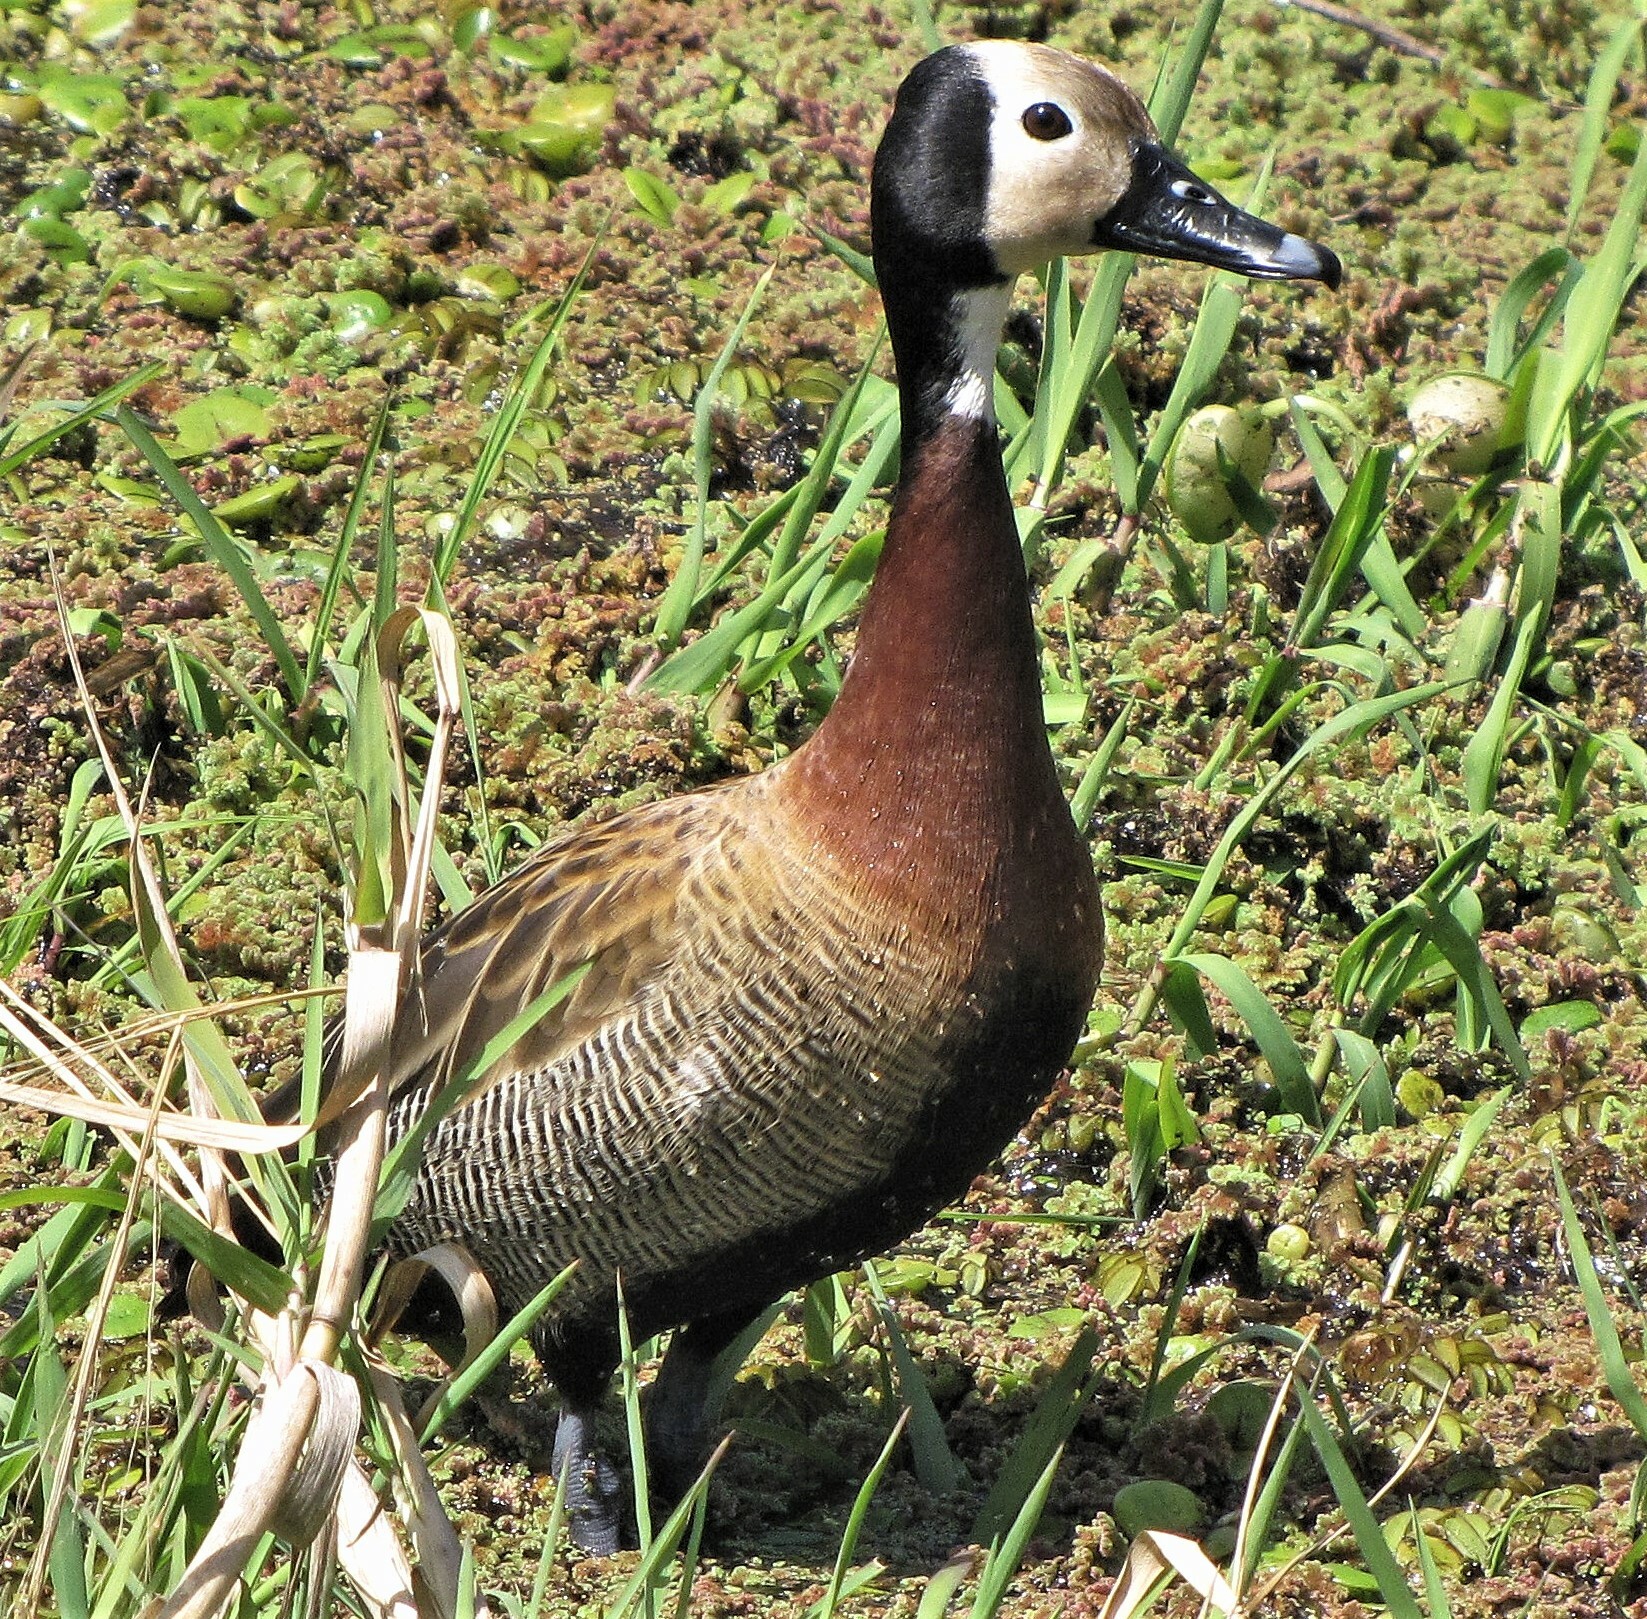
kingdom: Animalia
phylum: Chordata
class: Aves
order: Anseriformes
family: Anatidae
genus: Dendrocygna
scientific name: Dendrocygna viduata
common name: White-faced whistling duck
